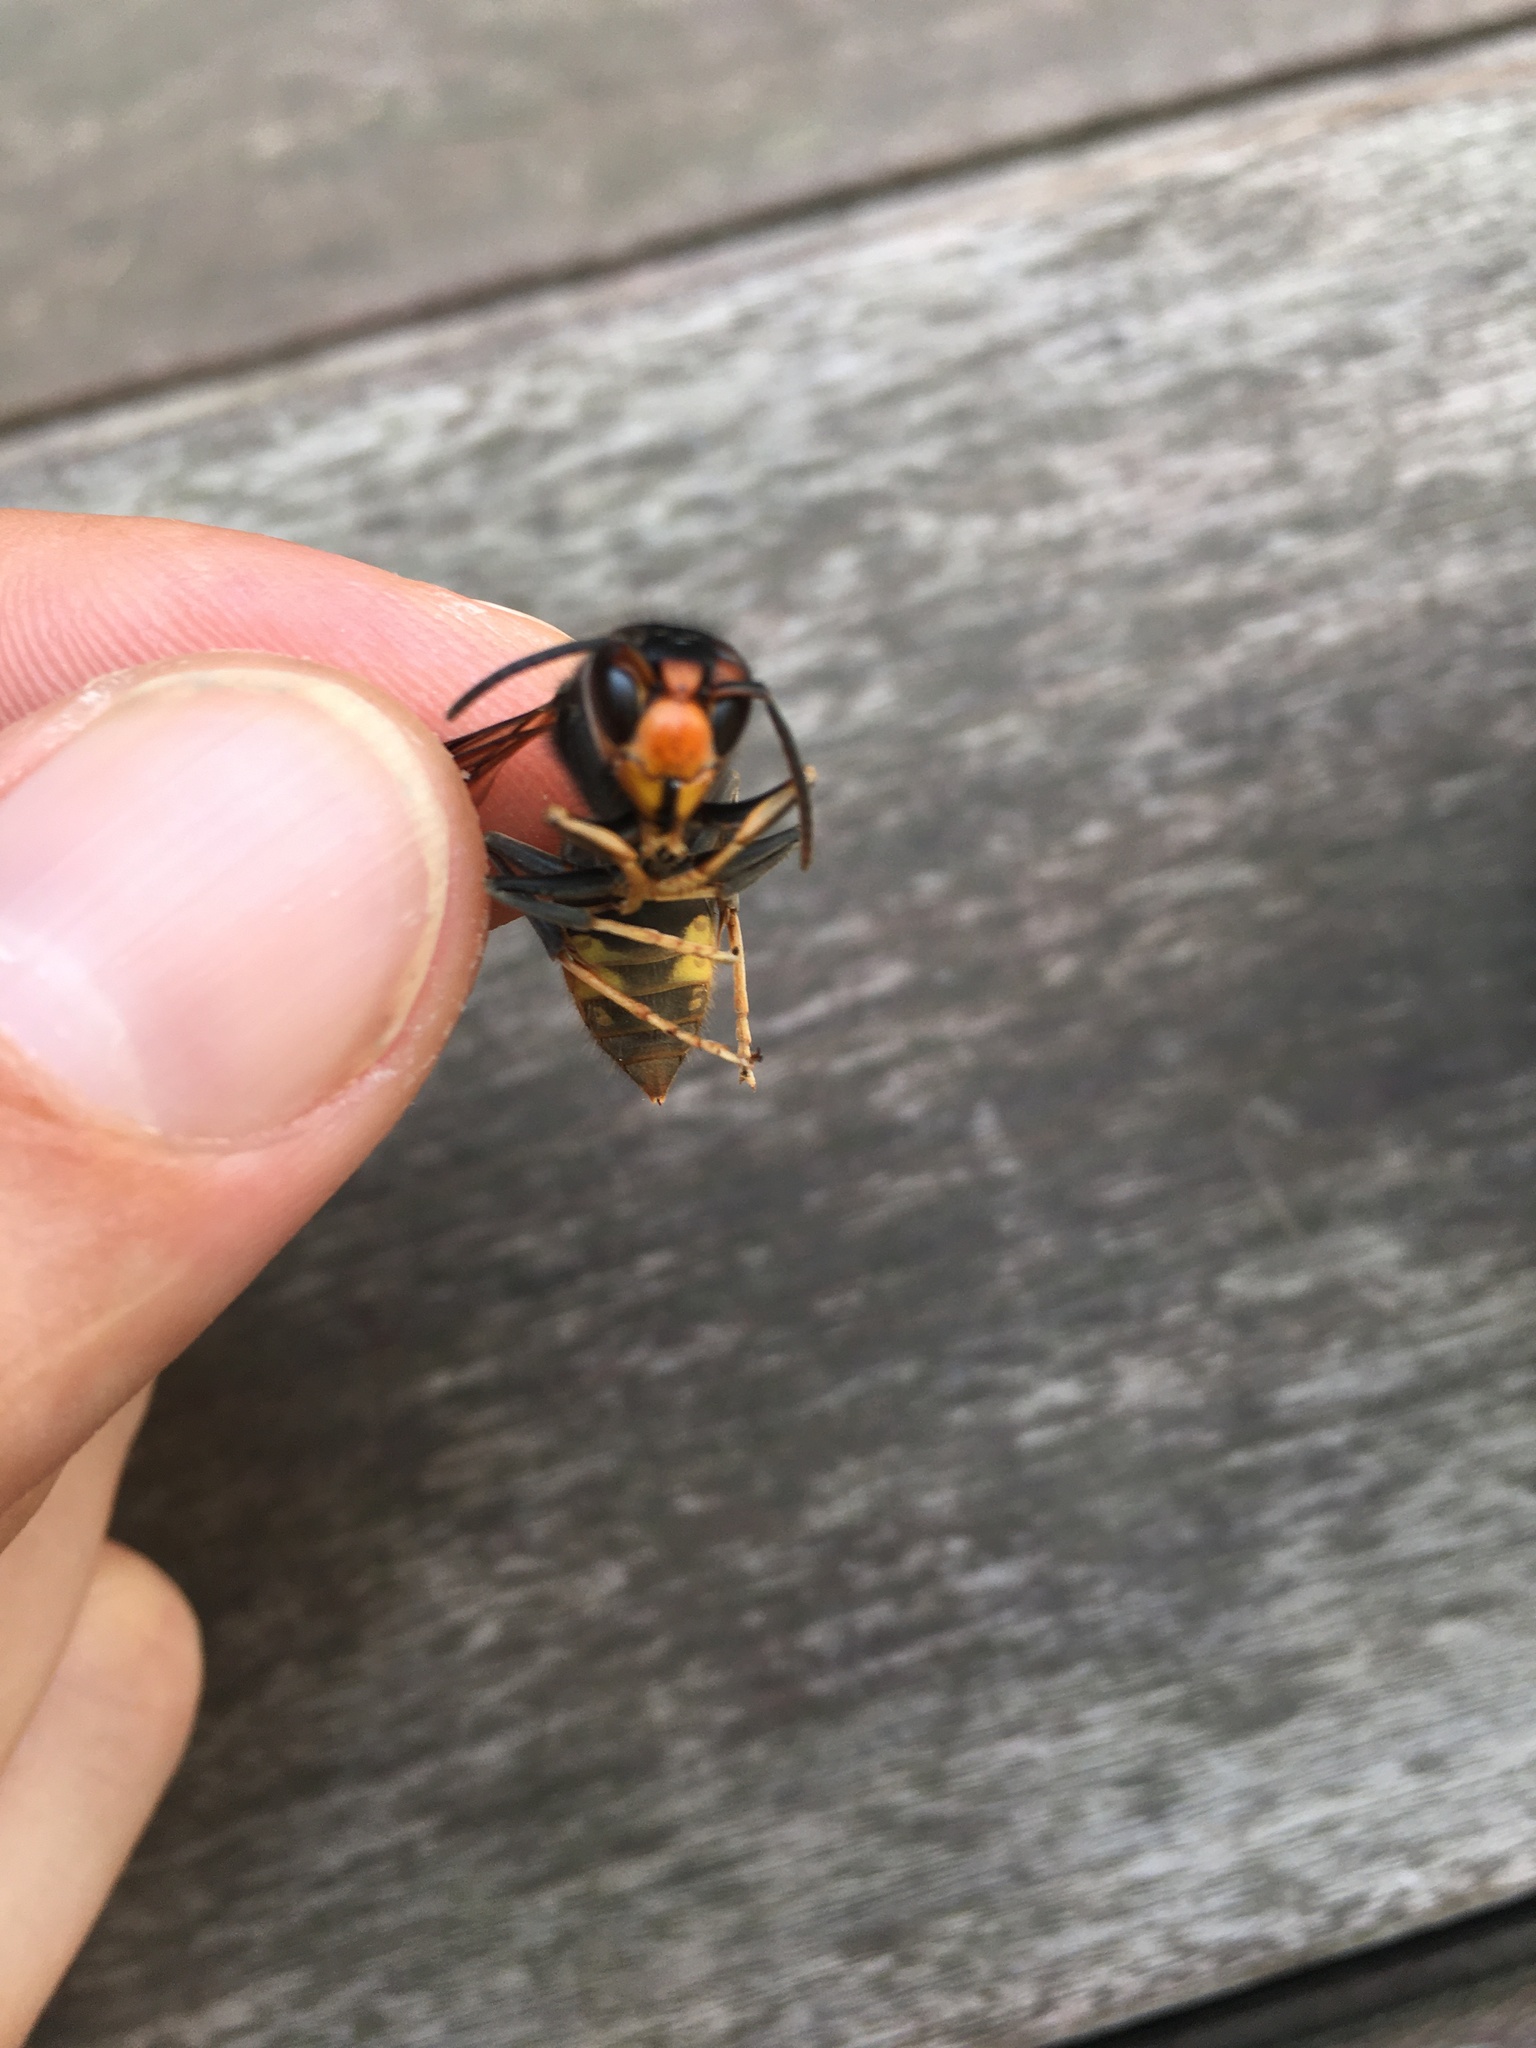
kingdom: Animalia
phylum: Arthropoda
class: Insecta
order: Hymenoptera
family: Vespidae
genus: Vespa
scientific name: Vespa velutina
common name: Asian hornet
